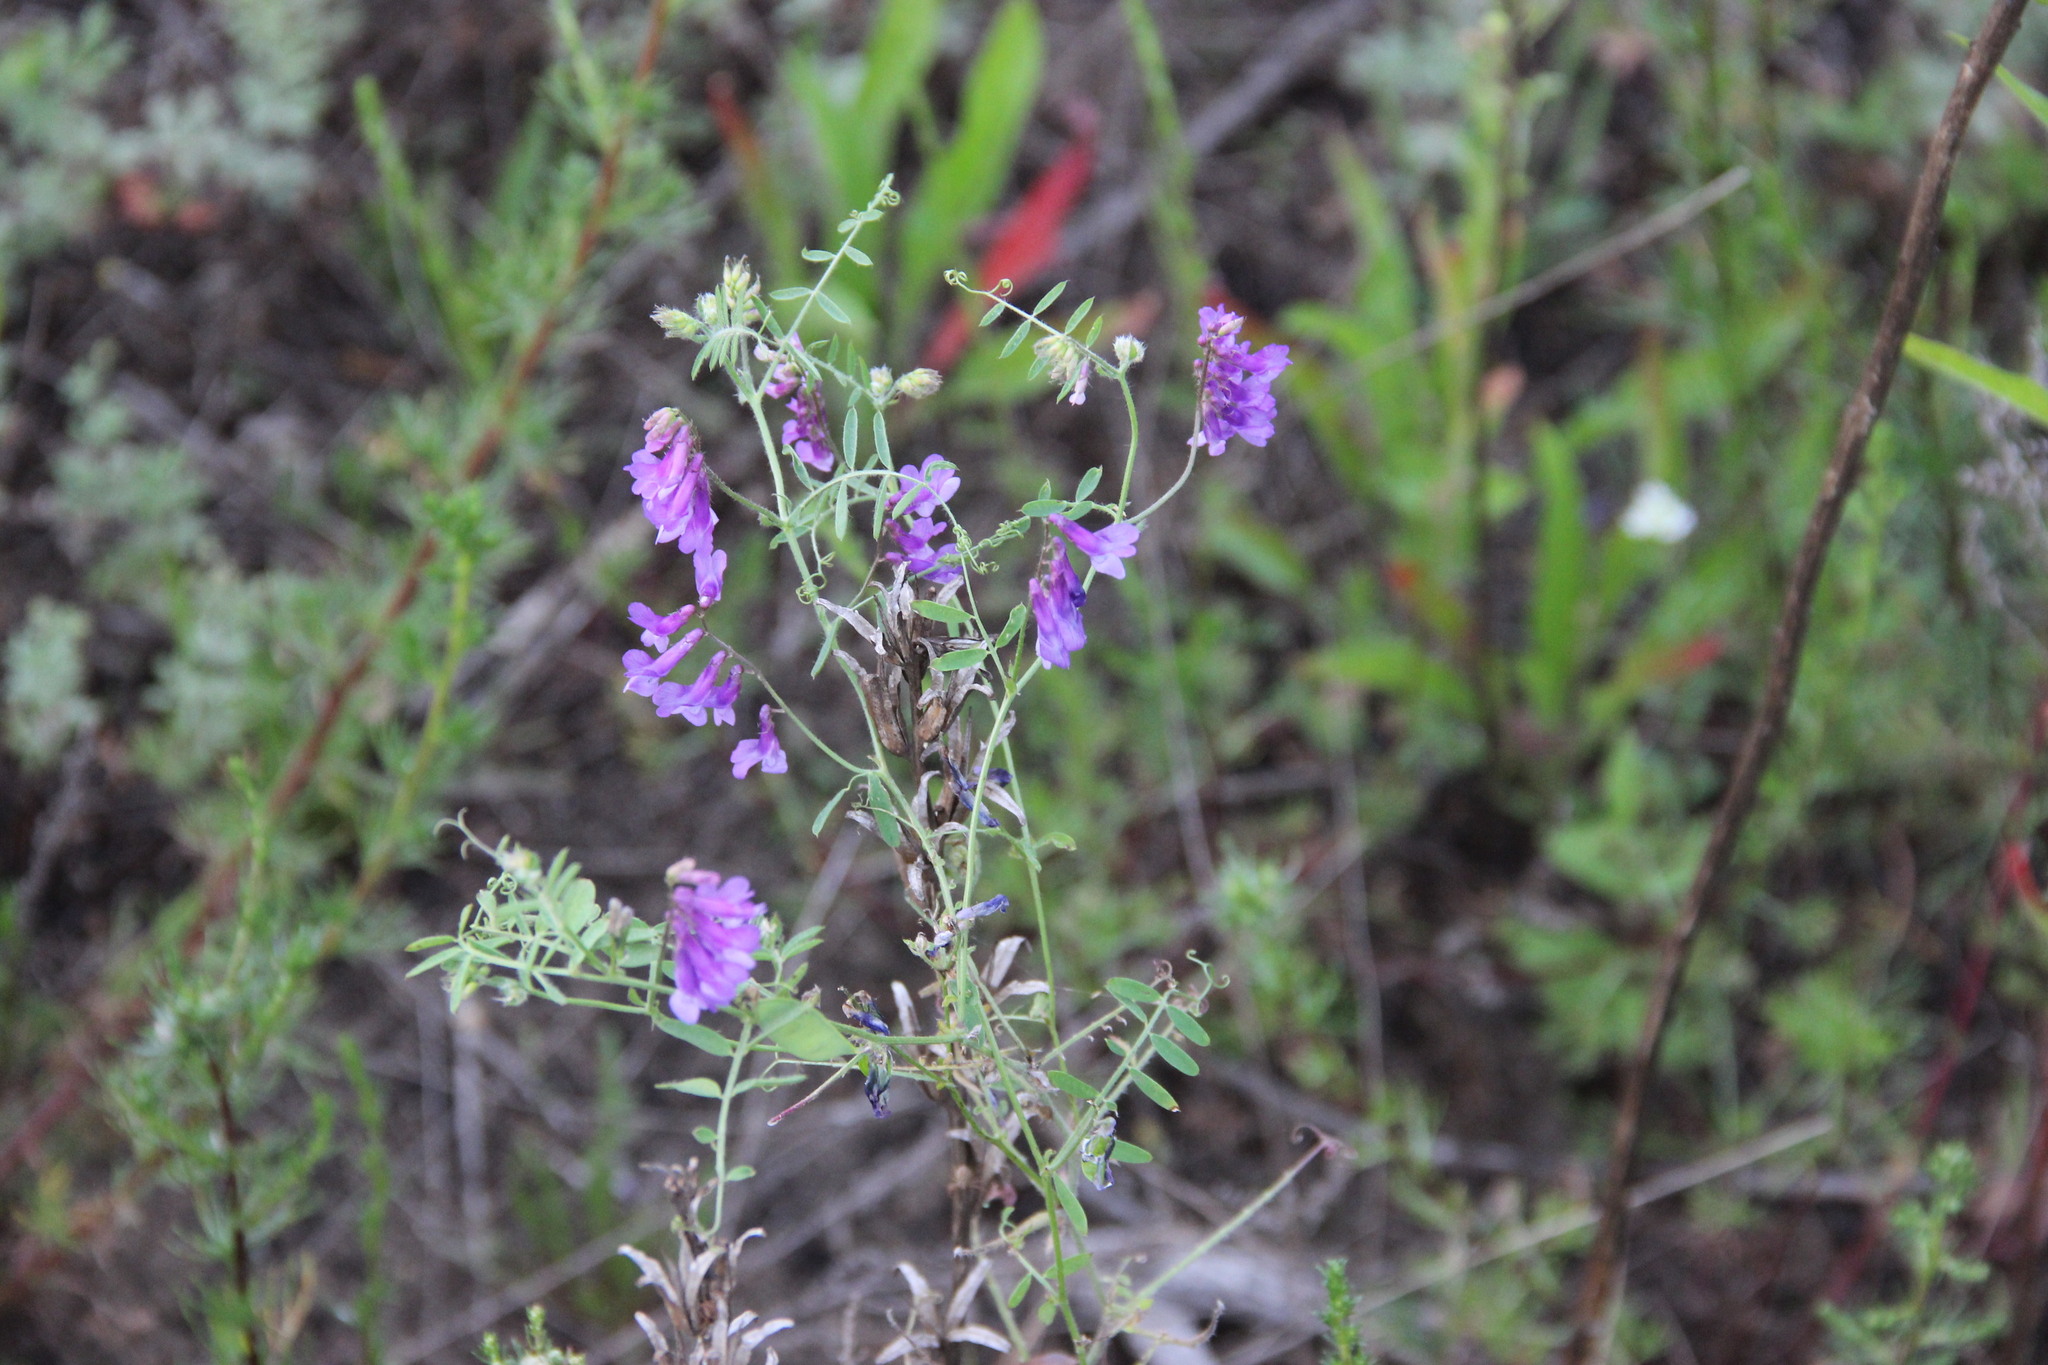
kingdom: Plantae
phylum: Tracheophyta
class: Magnoliopsida
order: Fabales
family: Fabaceae
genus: Vicia
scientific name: Vicia cracca
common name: Bird vetch
